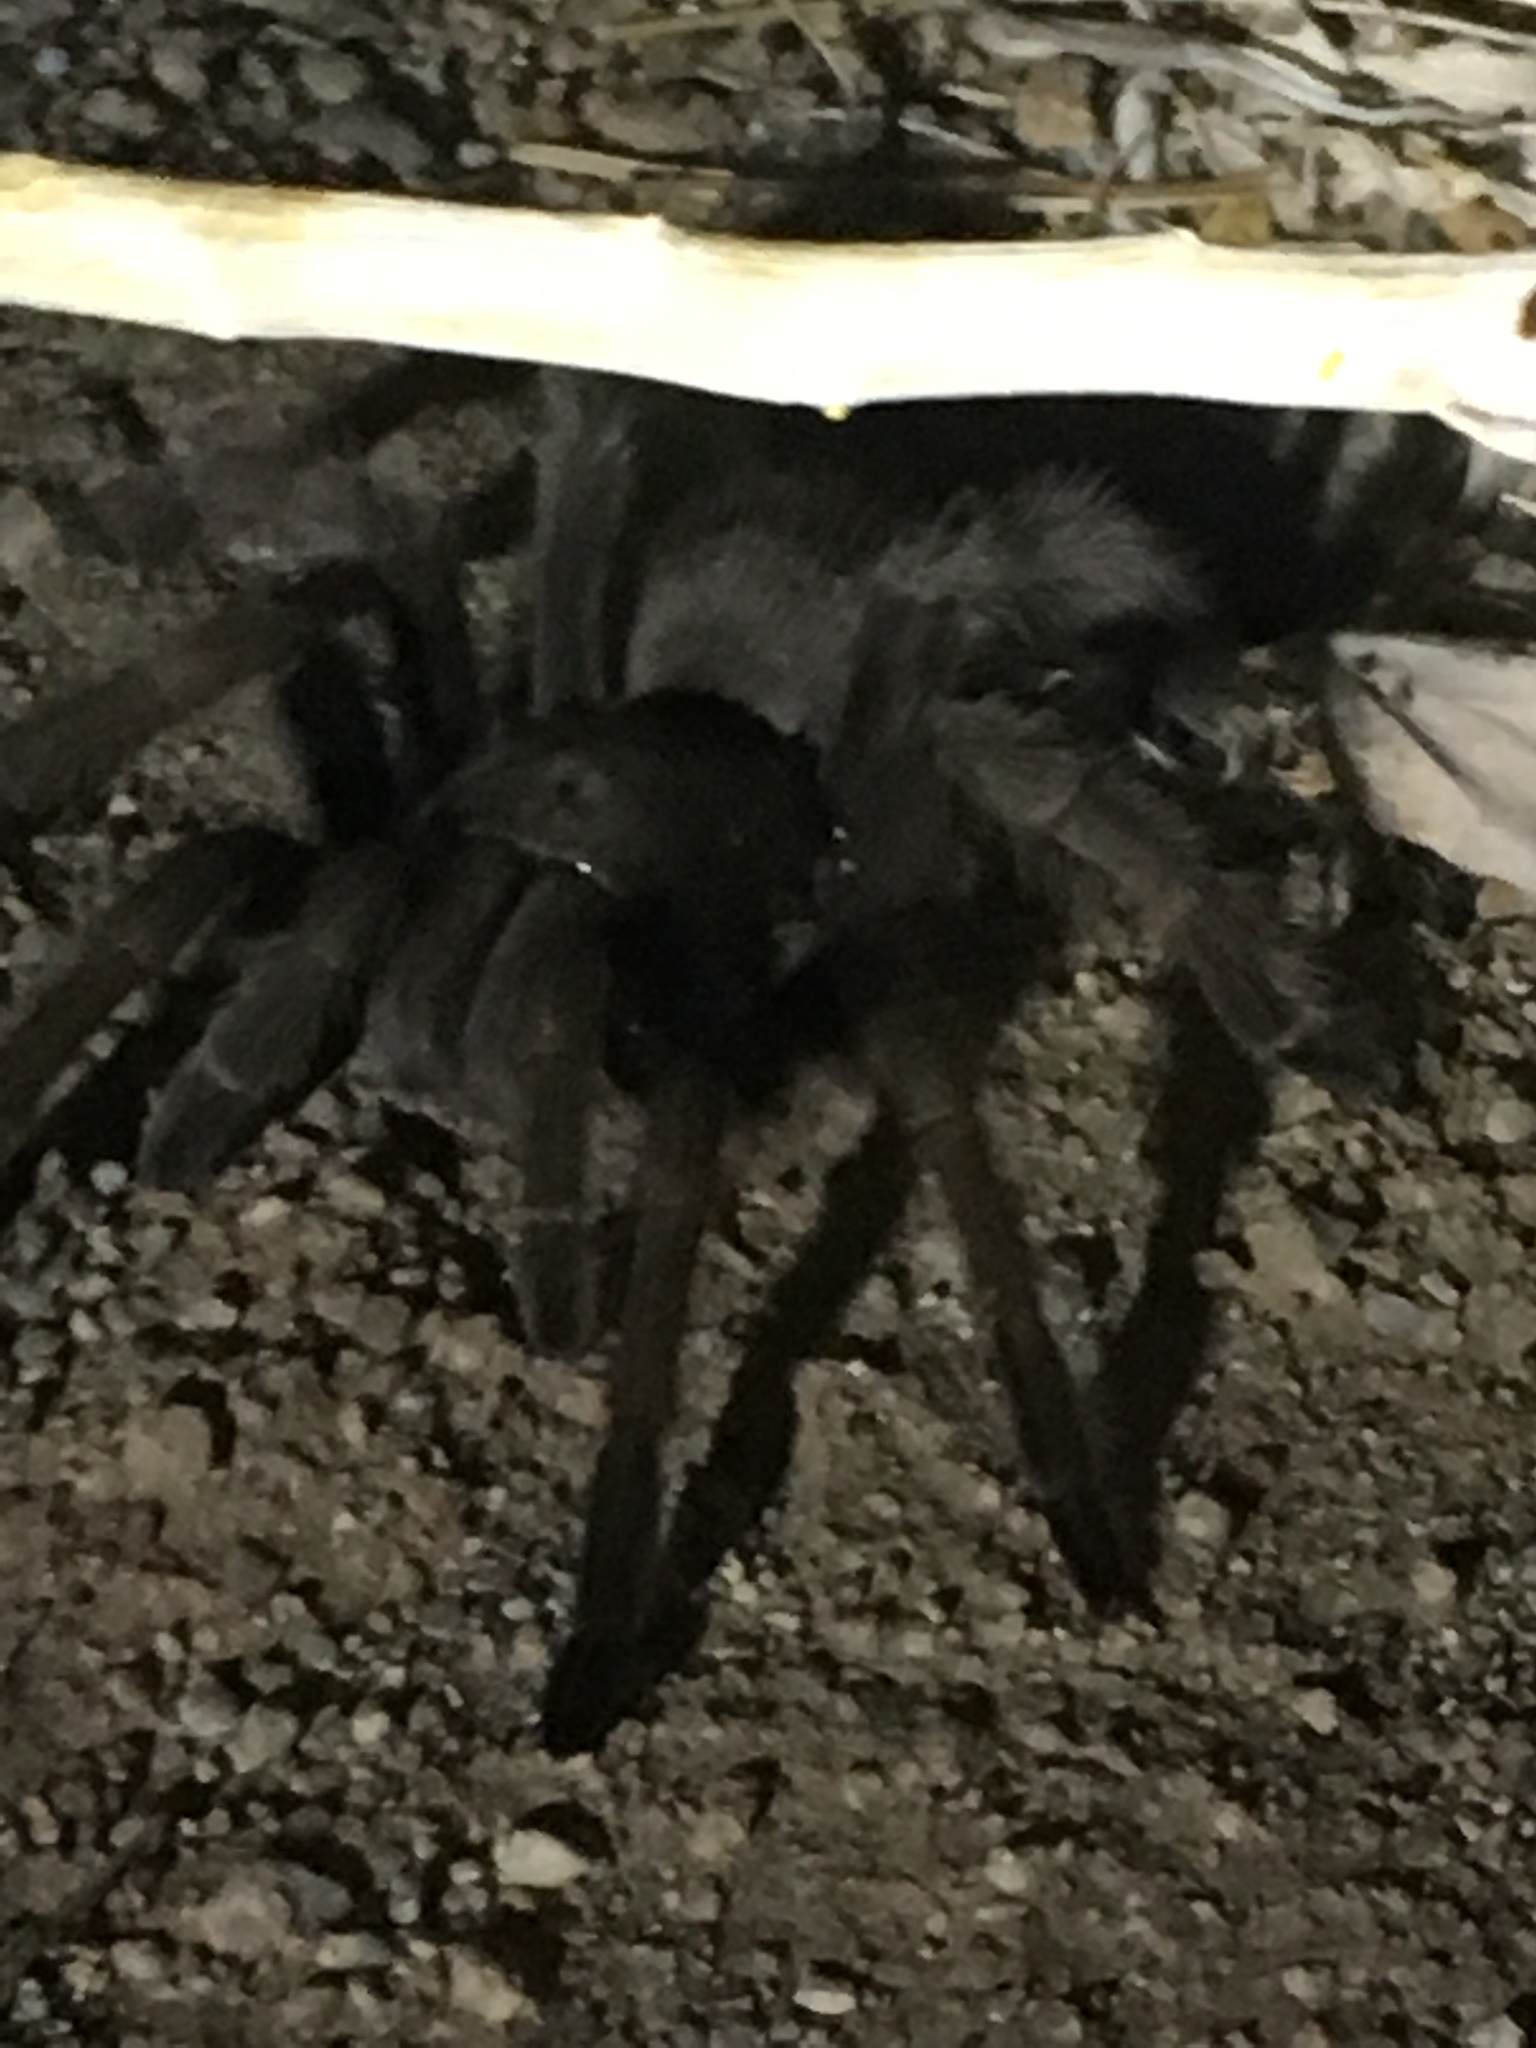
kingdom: Animalia
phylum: Arthropoda
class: Arachnida
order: Araneae
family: Theraphosidae
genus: Aphonopelma
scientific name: Aphonopelma eutylenum
